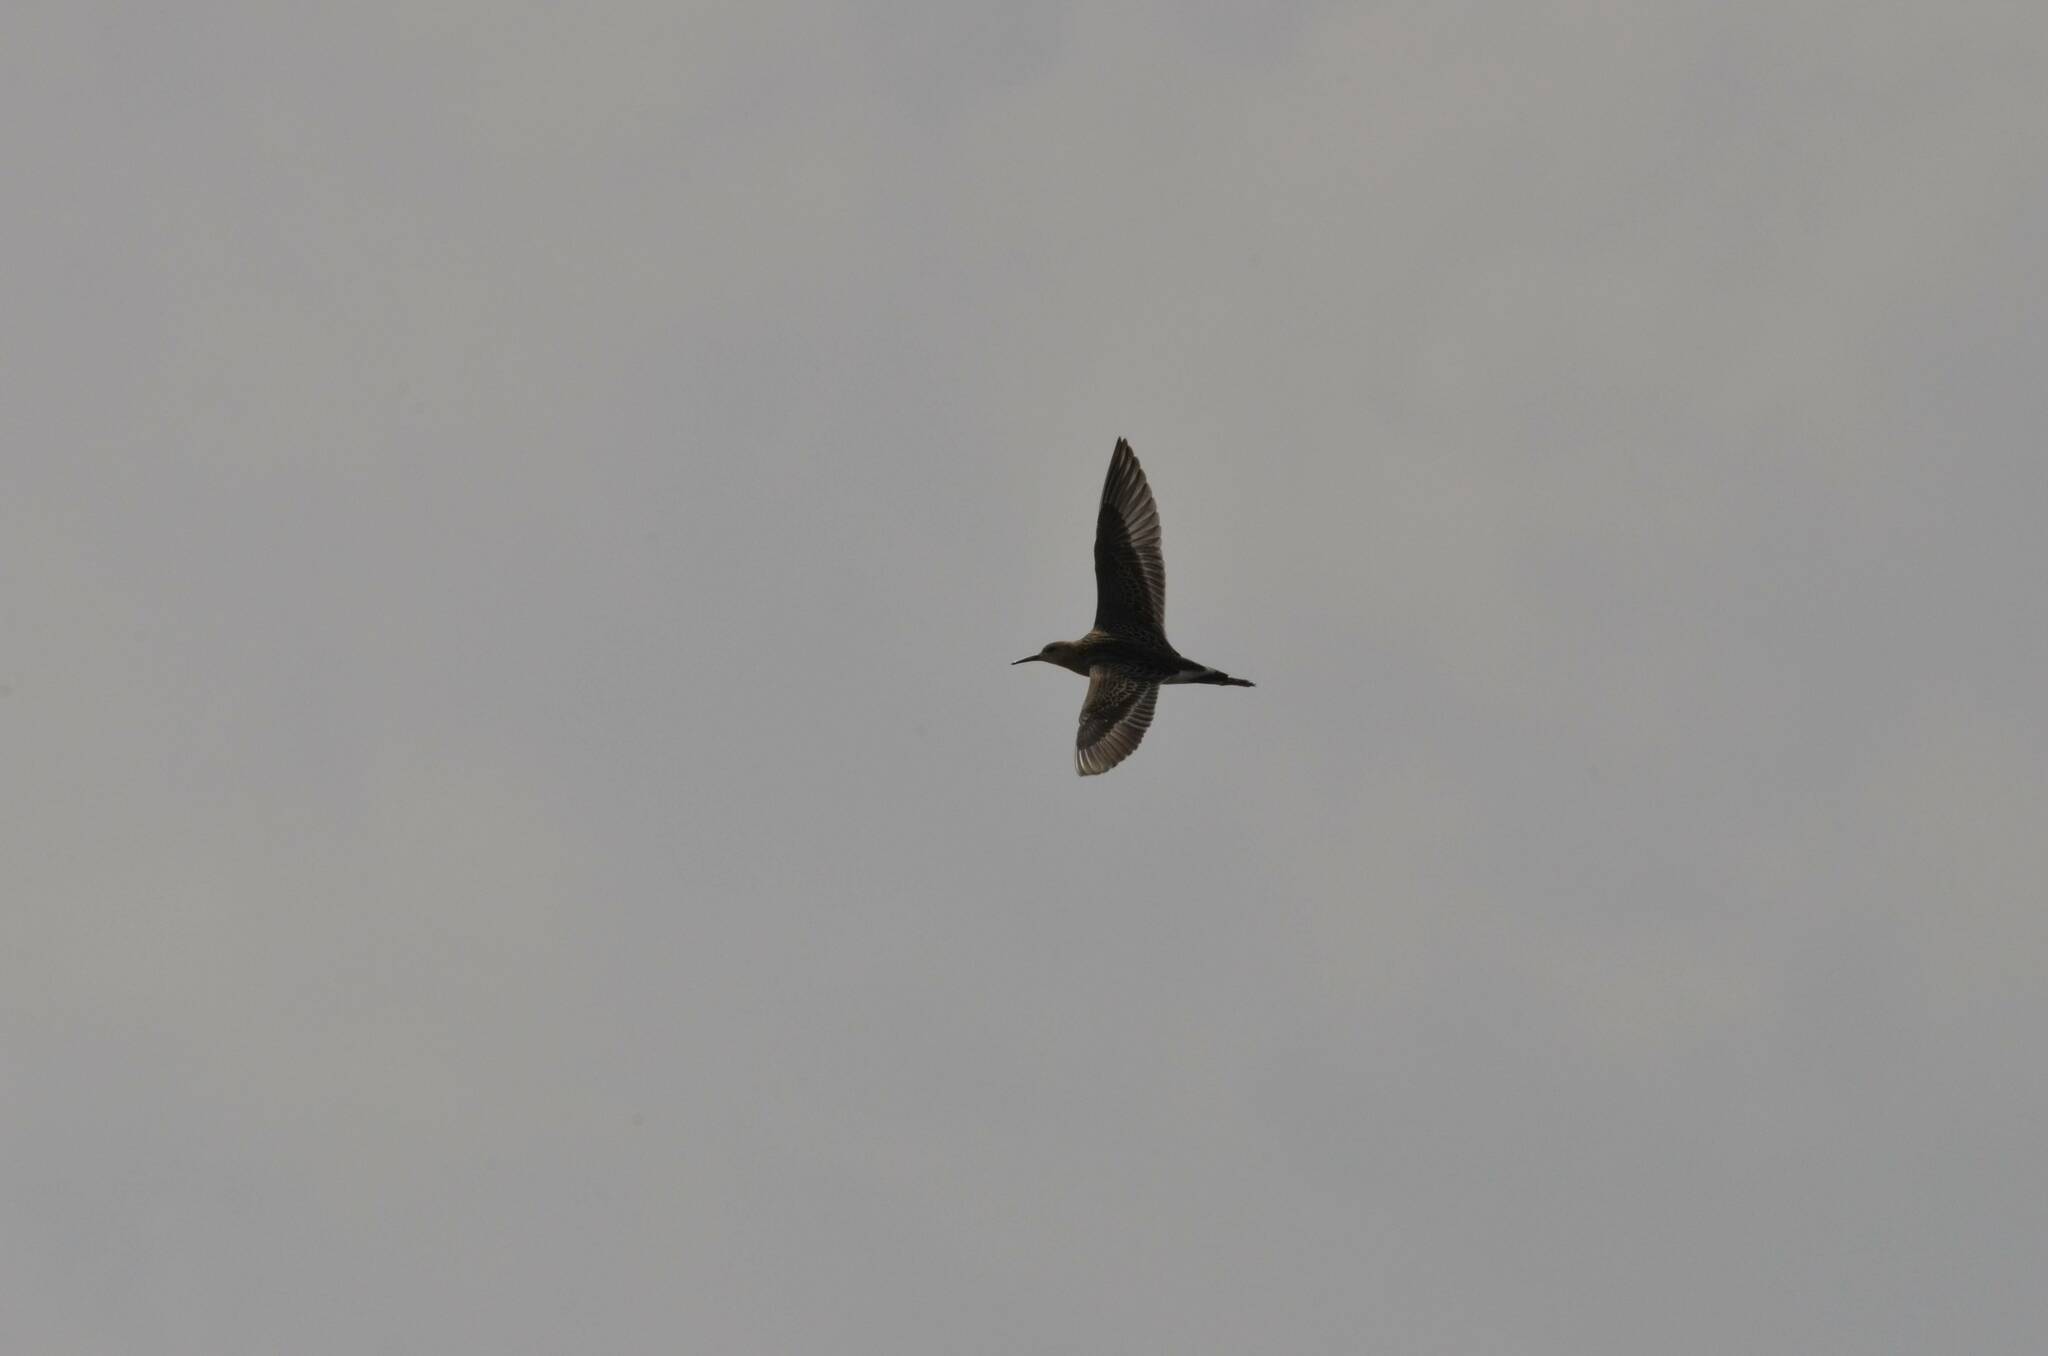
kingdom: Animalia
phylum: Chordata
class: Aves
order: Charadriiformes
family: Scolopacidae
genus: Calidris
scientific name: Calidris pugnax
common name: Ruff
